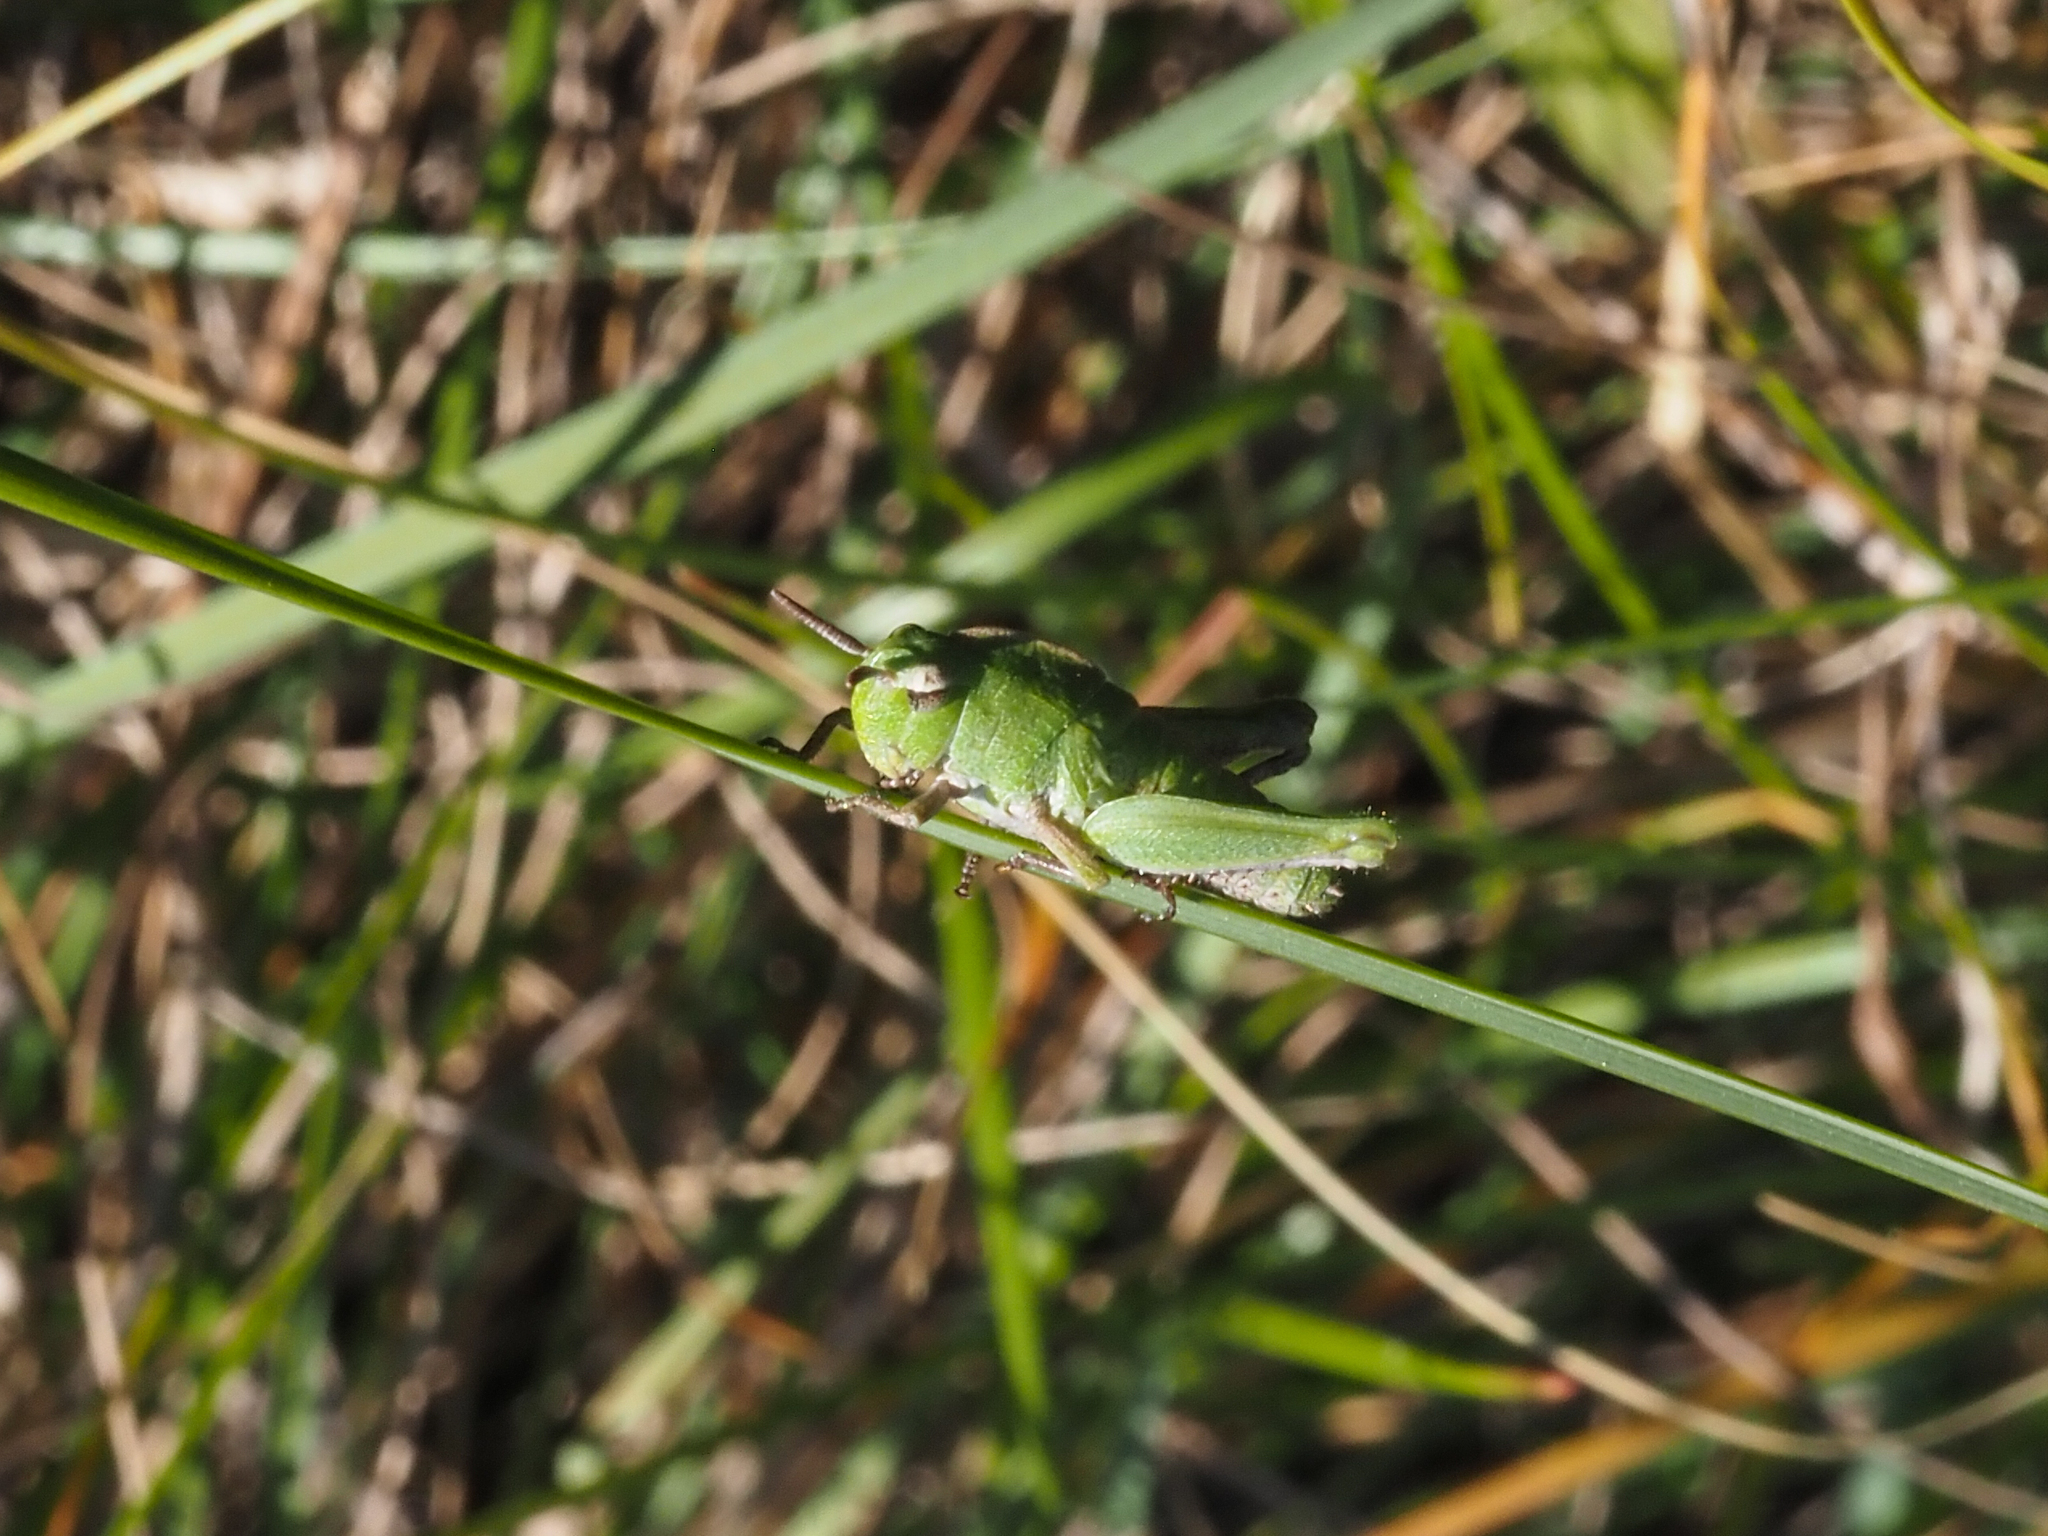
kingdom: Animalia
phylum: Arthropoda
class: Insecta
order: Orthoptera
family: Acrididae
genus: Chortophaga
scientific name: Chortophaga mendocino
